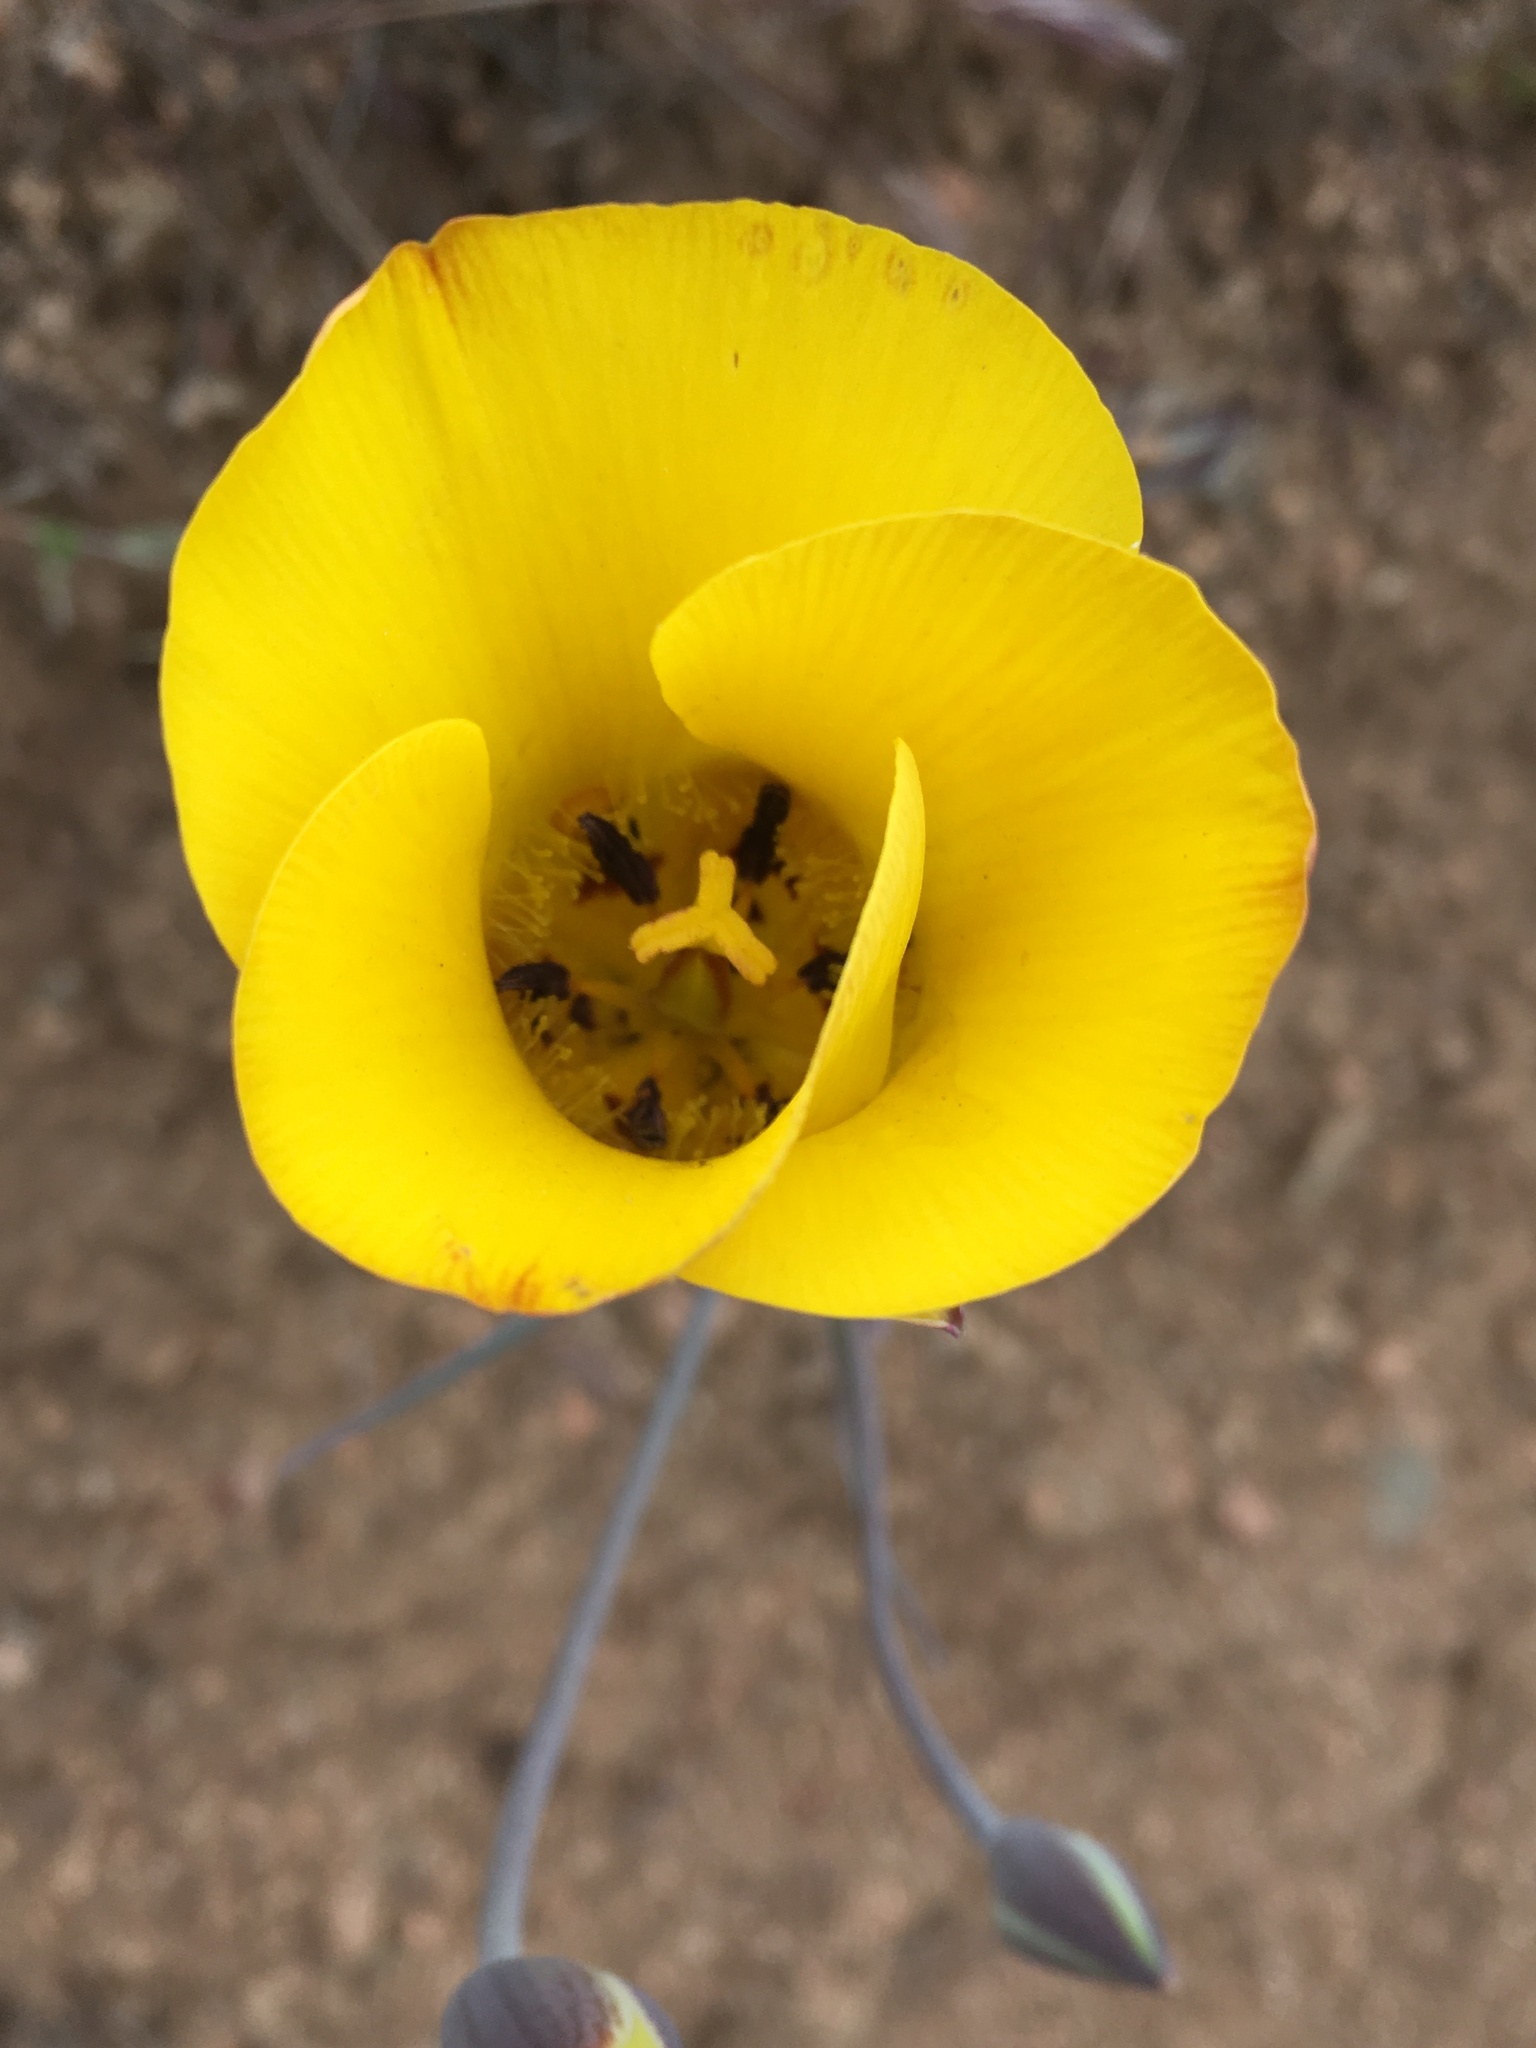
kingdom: Plantae
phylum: Tracheophyta
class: Liliopsida
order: Liliales
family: Liliaceae
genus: Calochortus
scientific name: Calochortus clavatus
